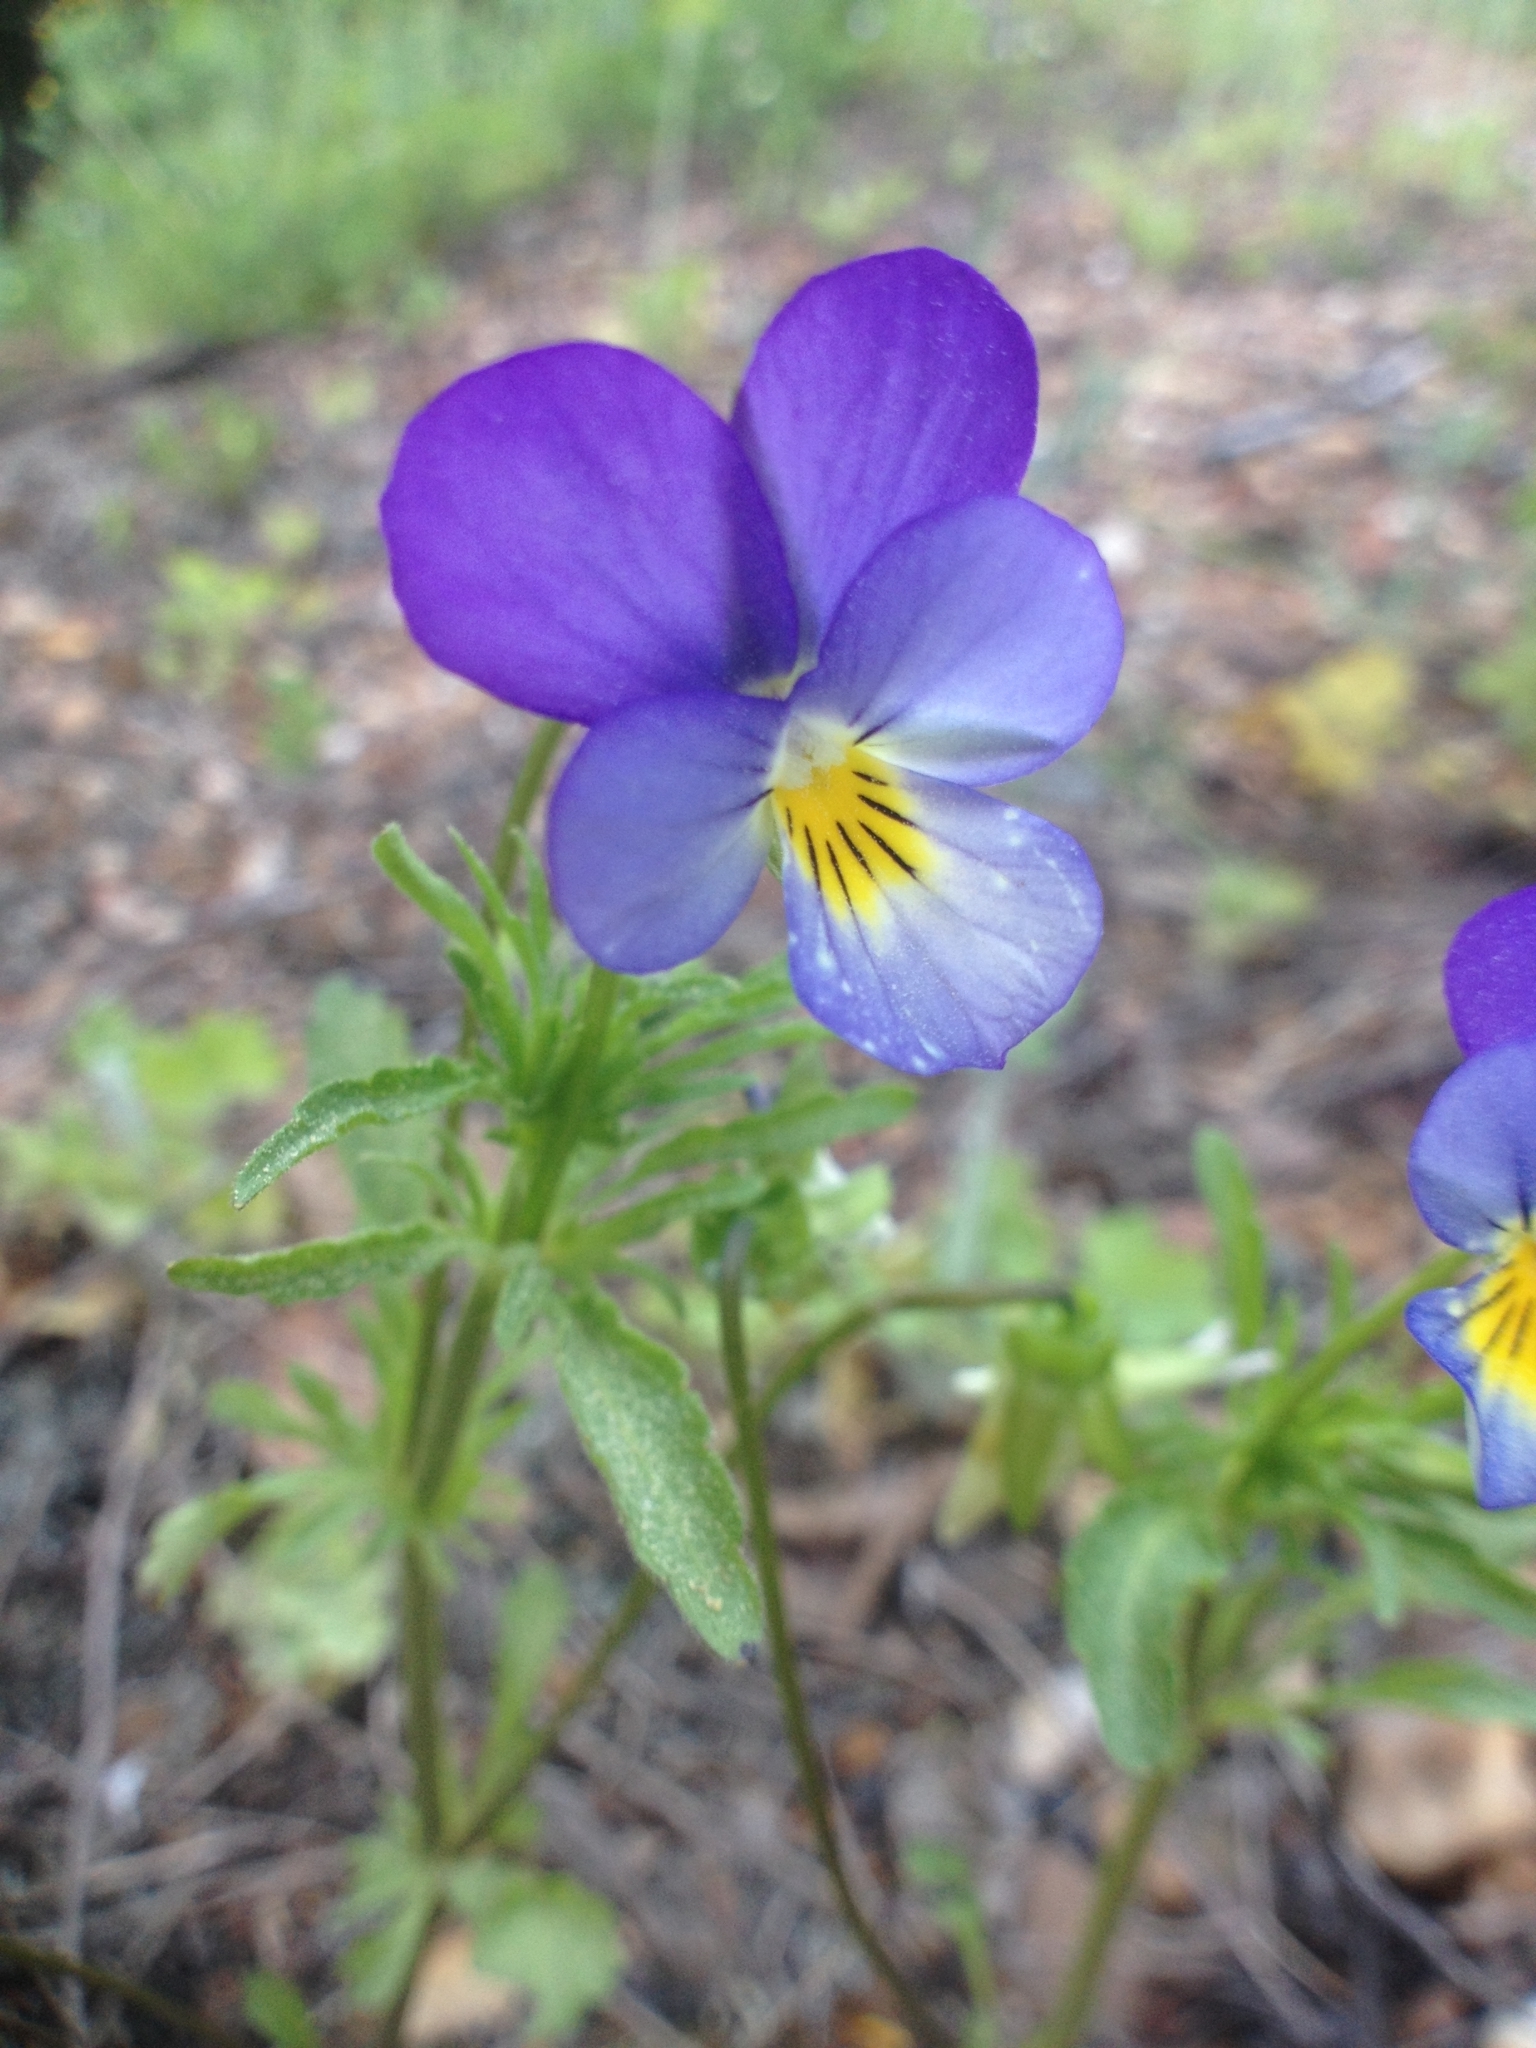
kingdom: Plantae
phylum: Tracheophyta
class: Magnoliopsida
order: Malpighiales
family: Violaceae
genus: Viola
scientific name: Viola tricolor
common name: Pansy
